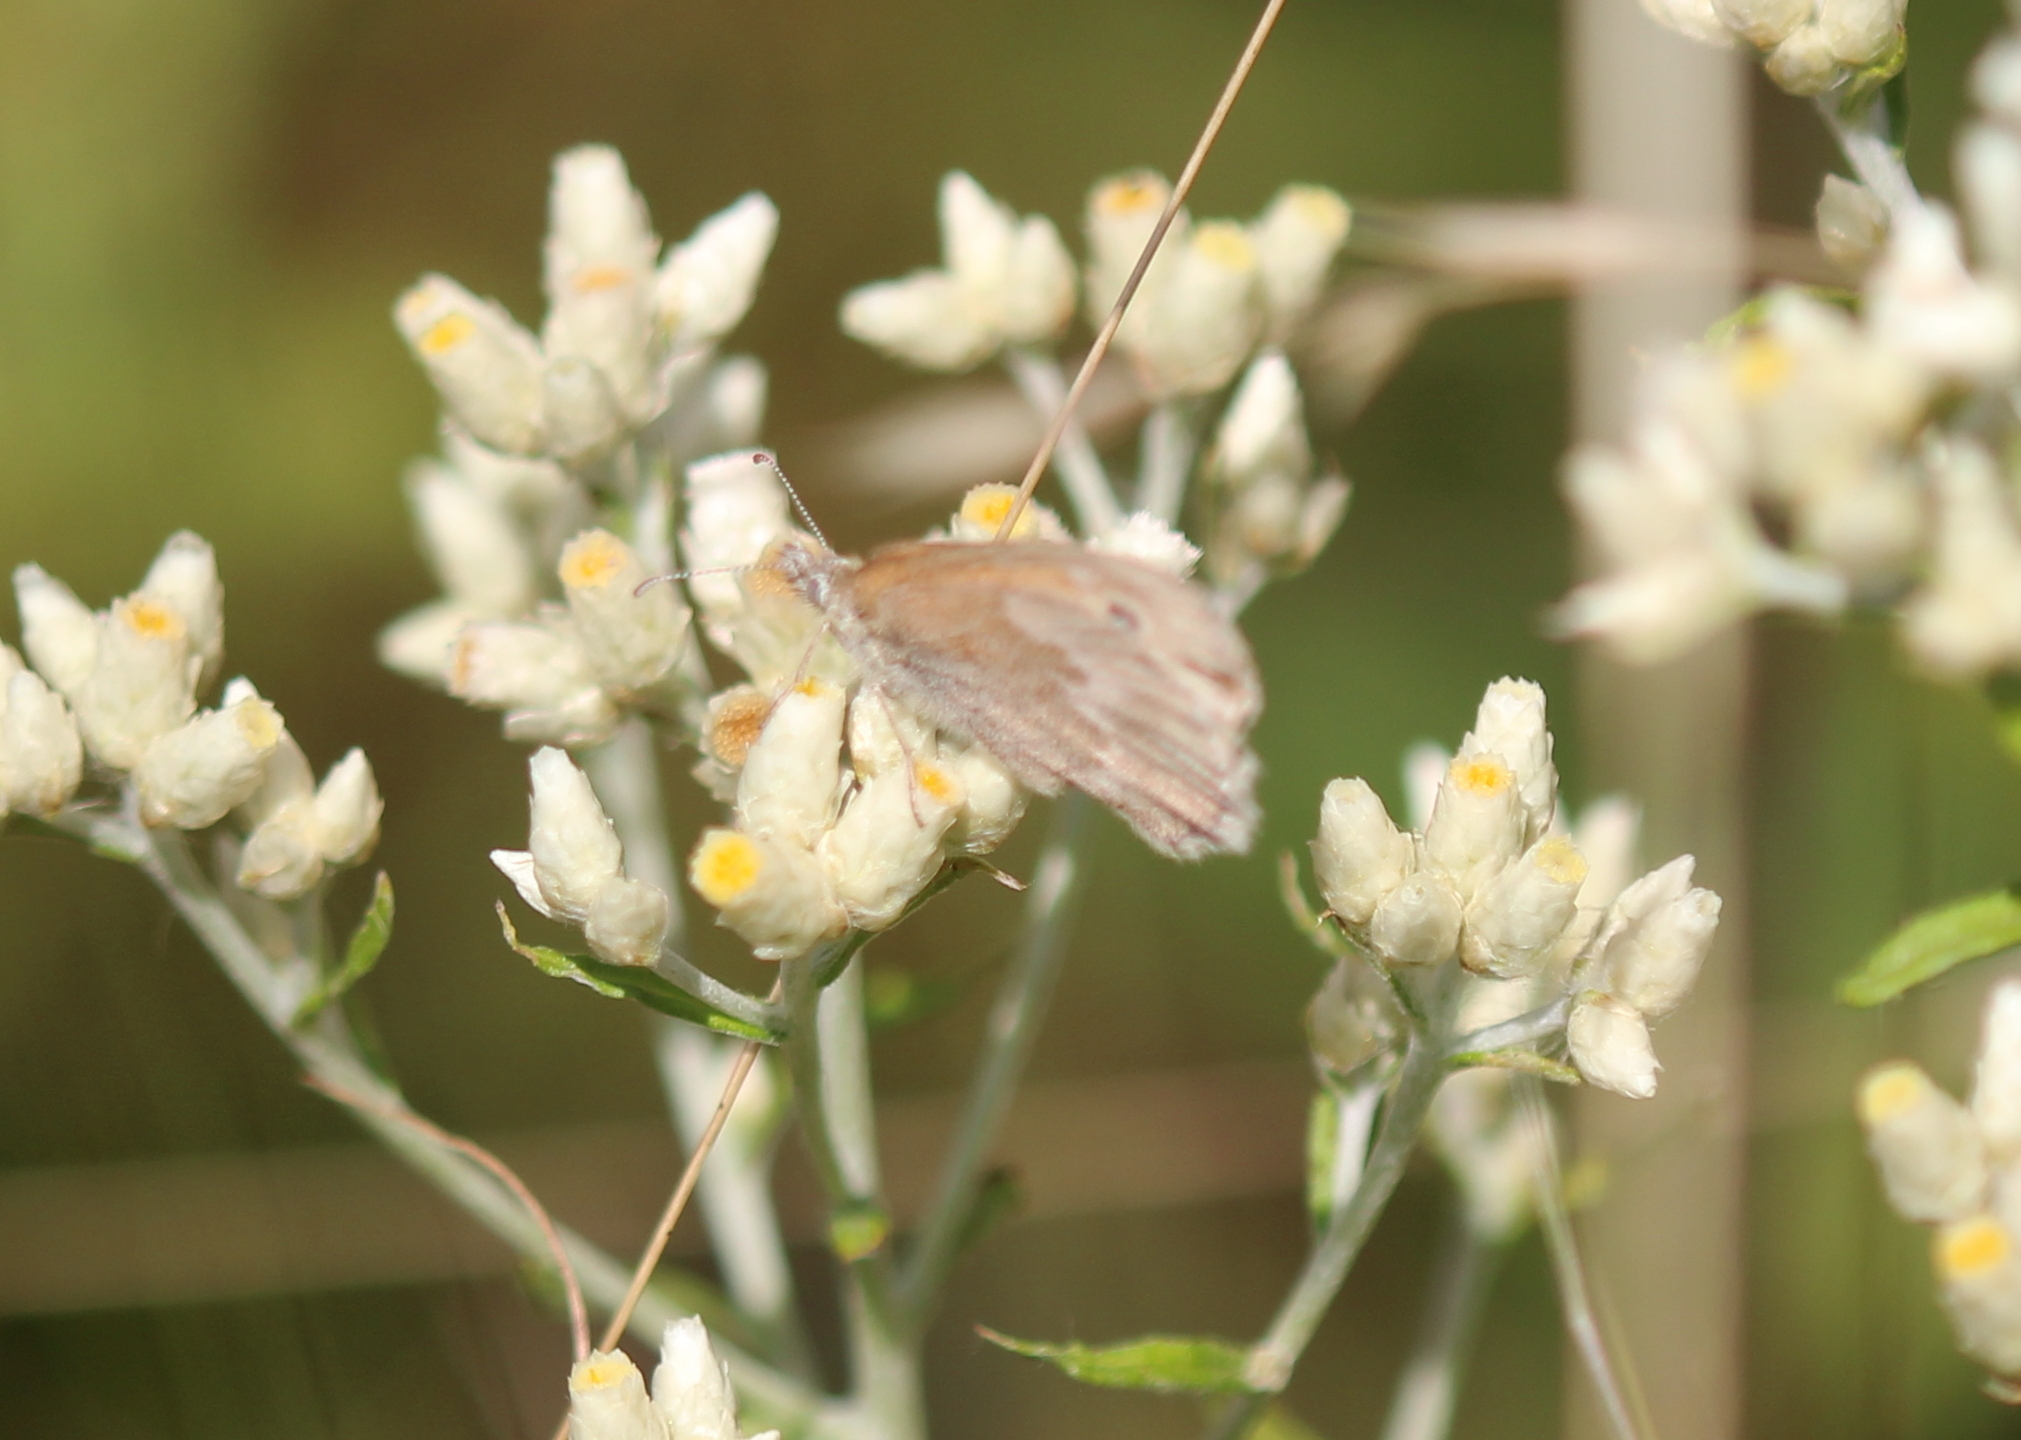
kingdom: Animalia
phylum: Arthropoda
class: Insecta
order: Lepidoptera
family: Nymphalidae
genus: Coenonympha
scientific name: Coenonympha california
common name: Common ringlet
